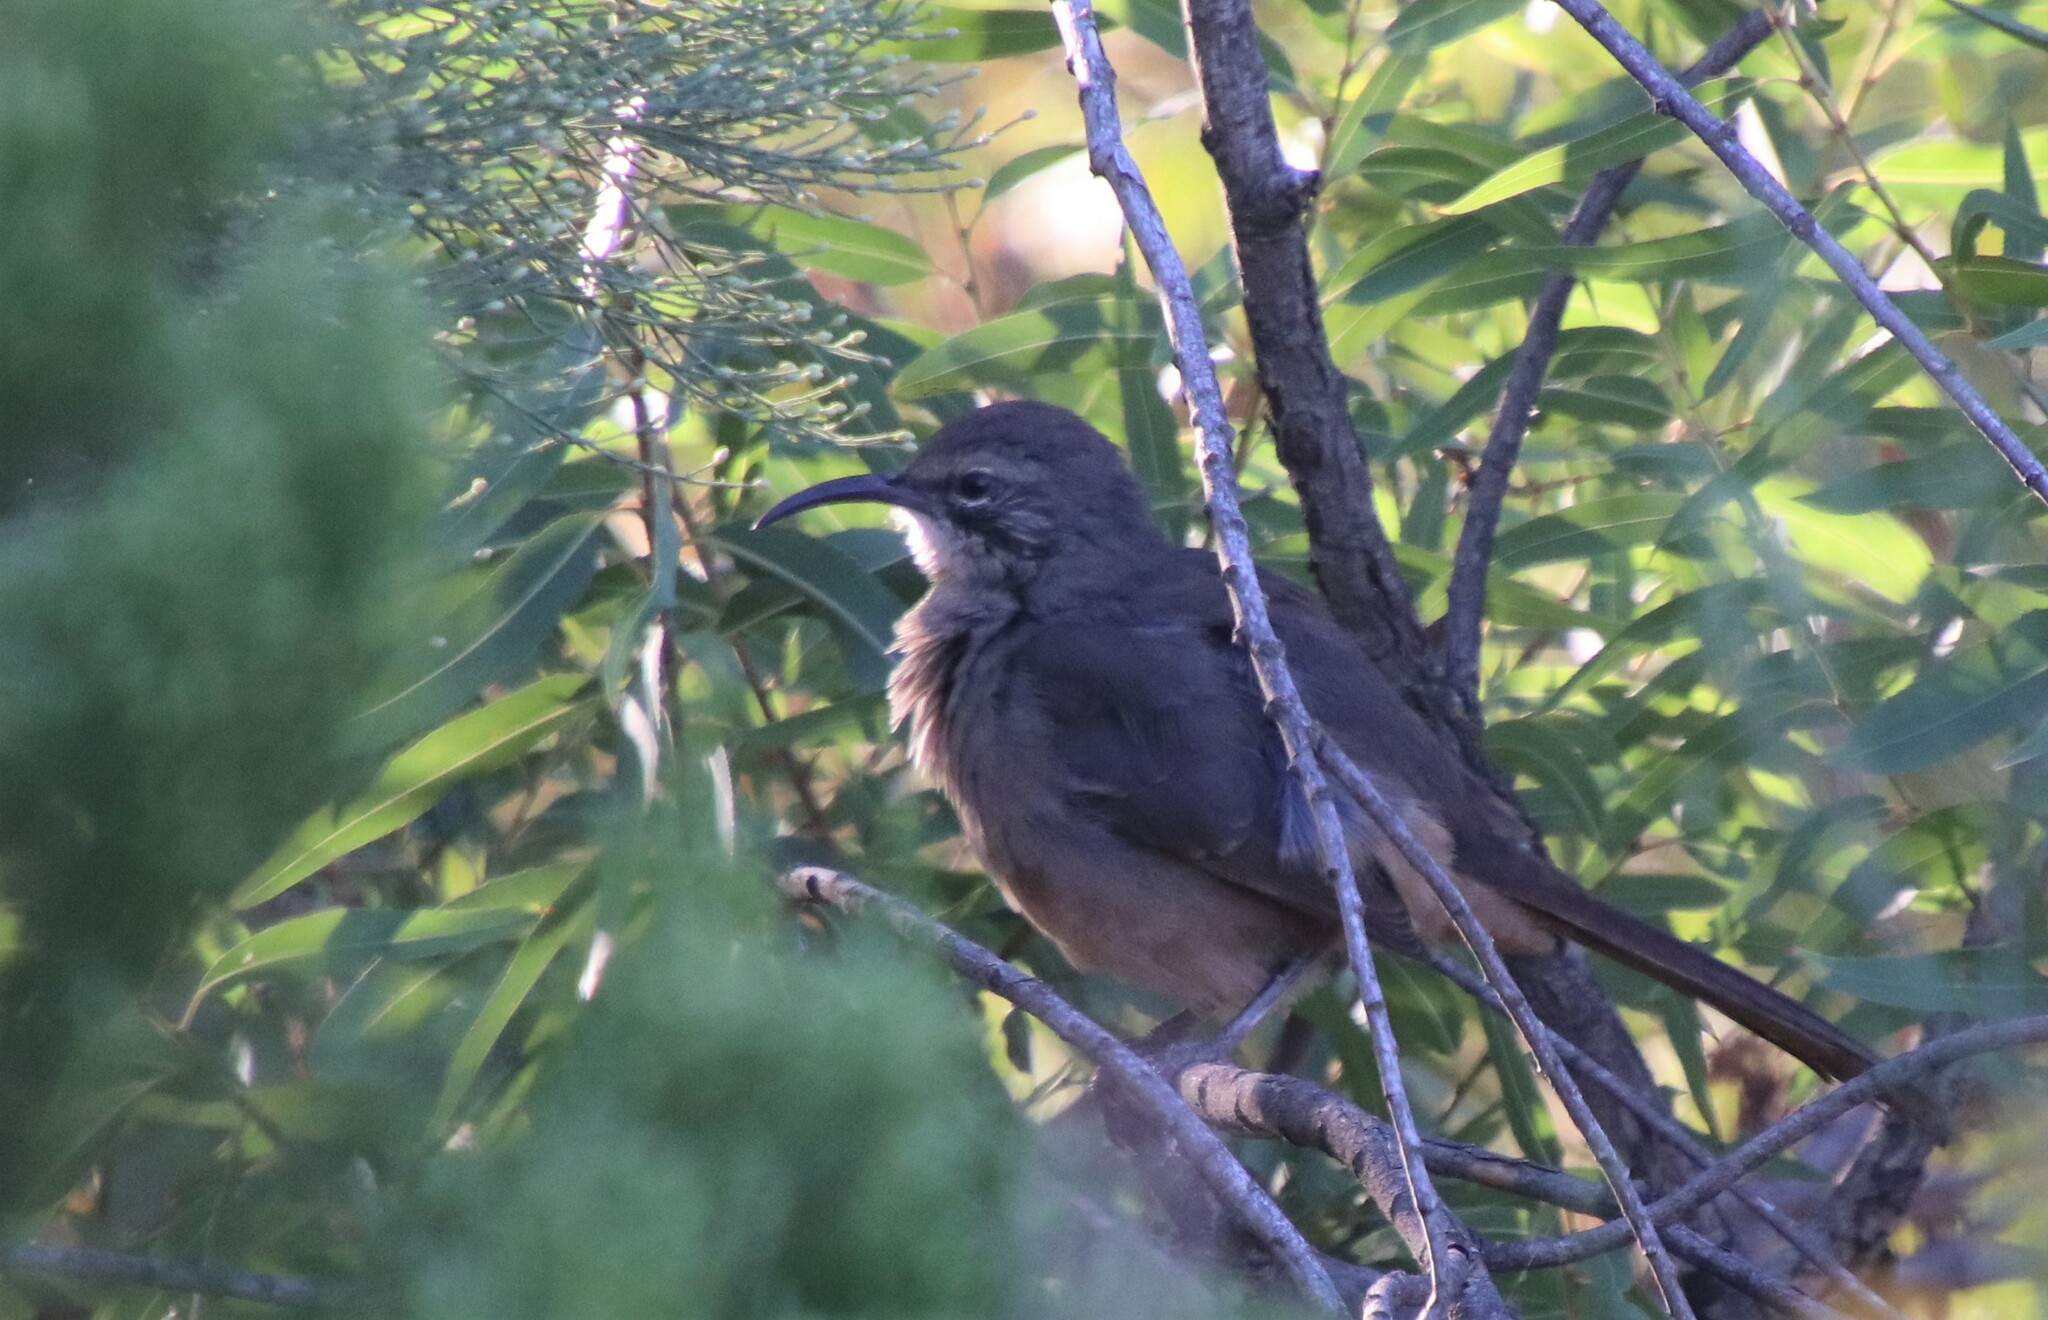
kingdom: Animalia
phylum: Chordata
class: Aves
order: Passeriformes
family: Mimidae
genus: Toxostoma
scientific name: Toxostoma redivivum
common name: California thrasher
